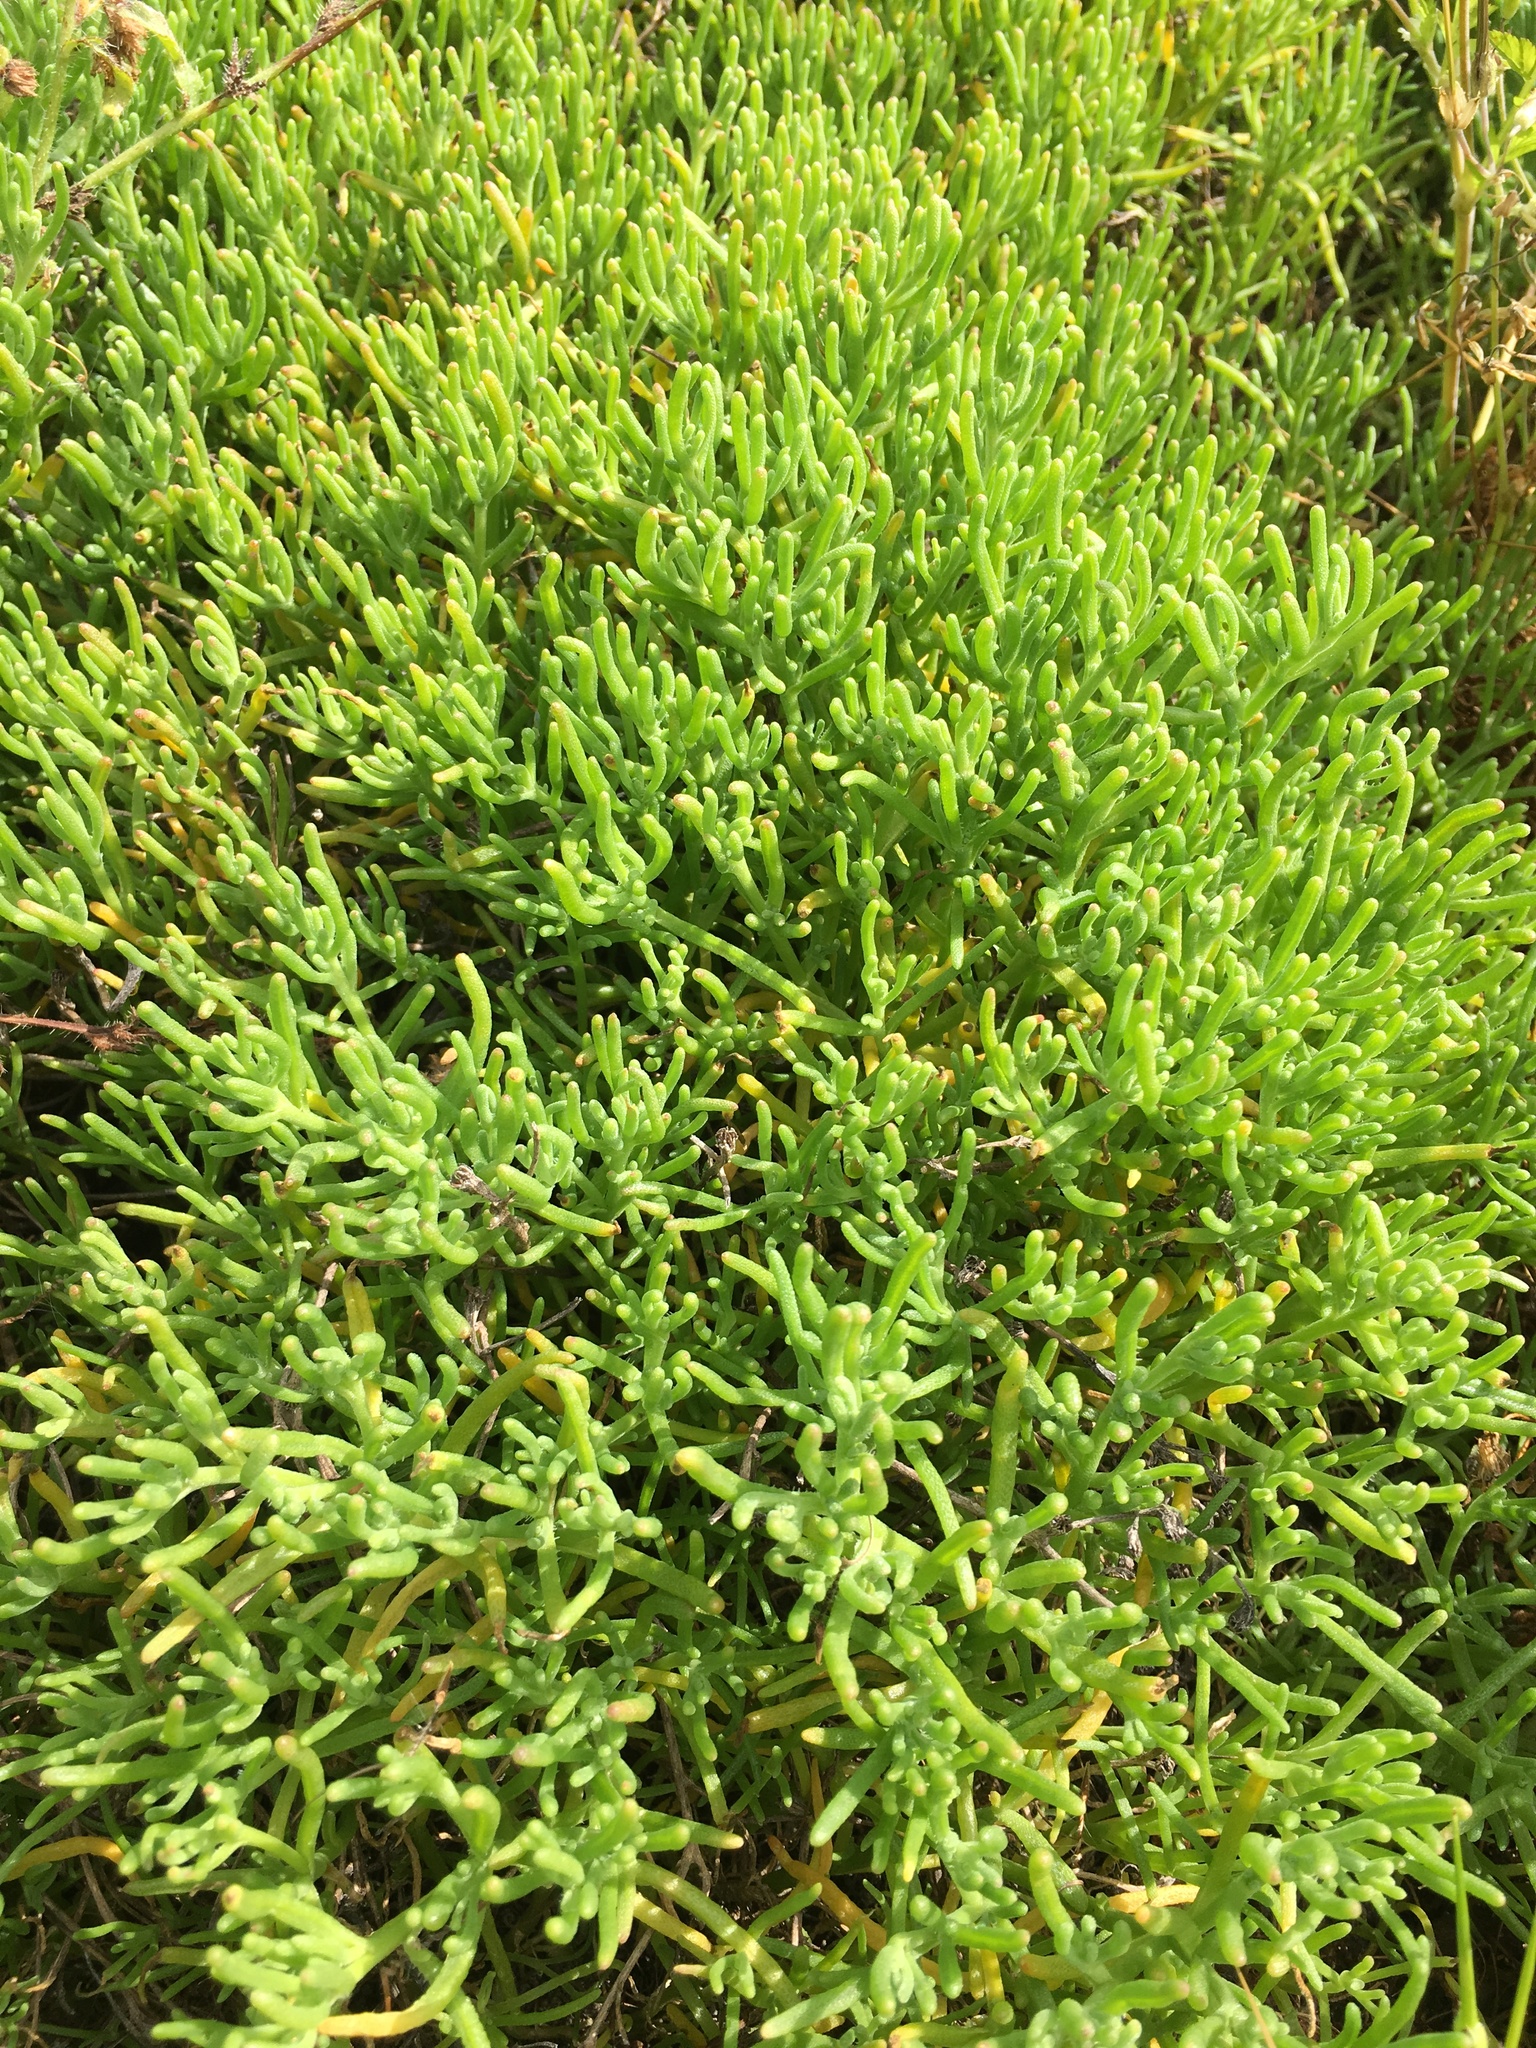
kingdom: Plantae
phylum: Tracheophyta
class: Magnoliopsida
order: Caryophyllales
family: Aizoaceae
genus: Mesembryanthemum
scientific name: Mesembryanthemum nodiflorum
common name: Slenderleaf iceplant
